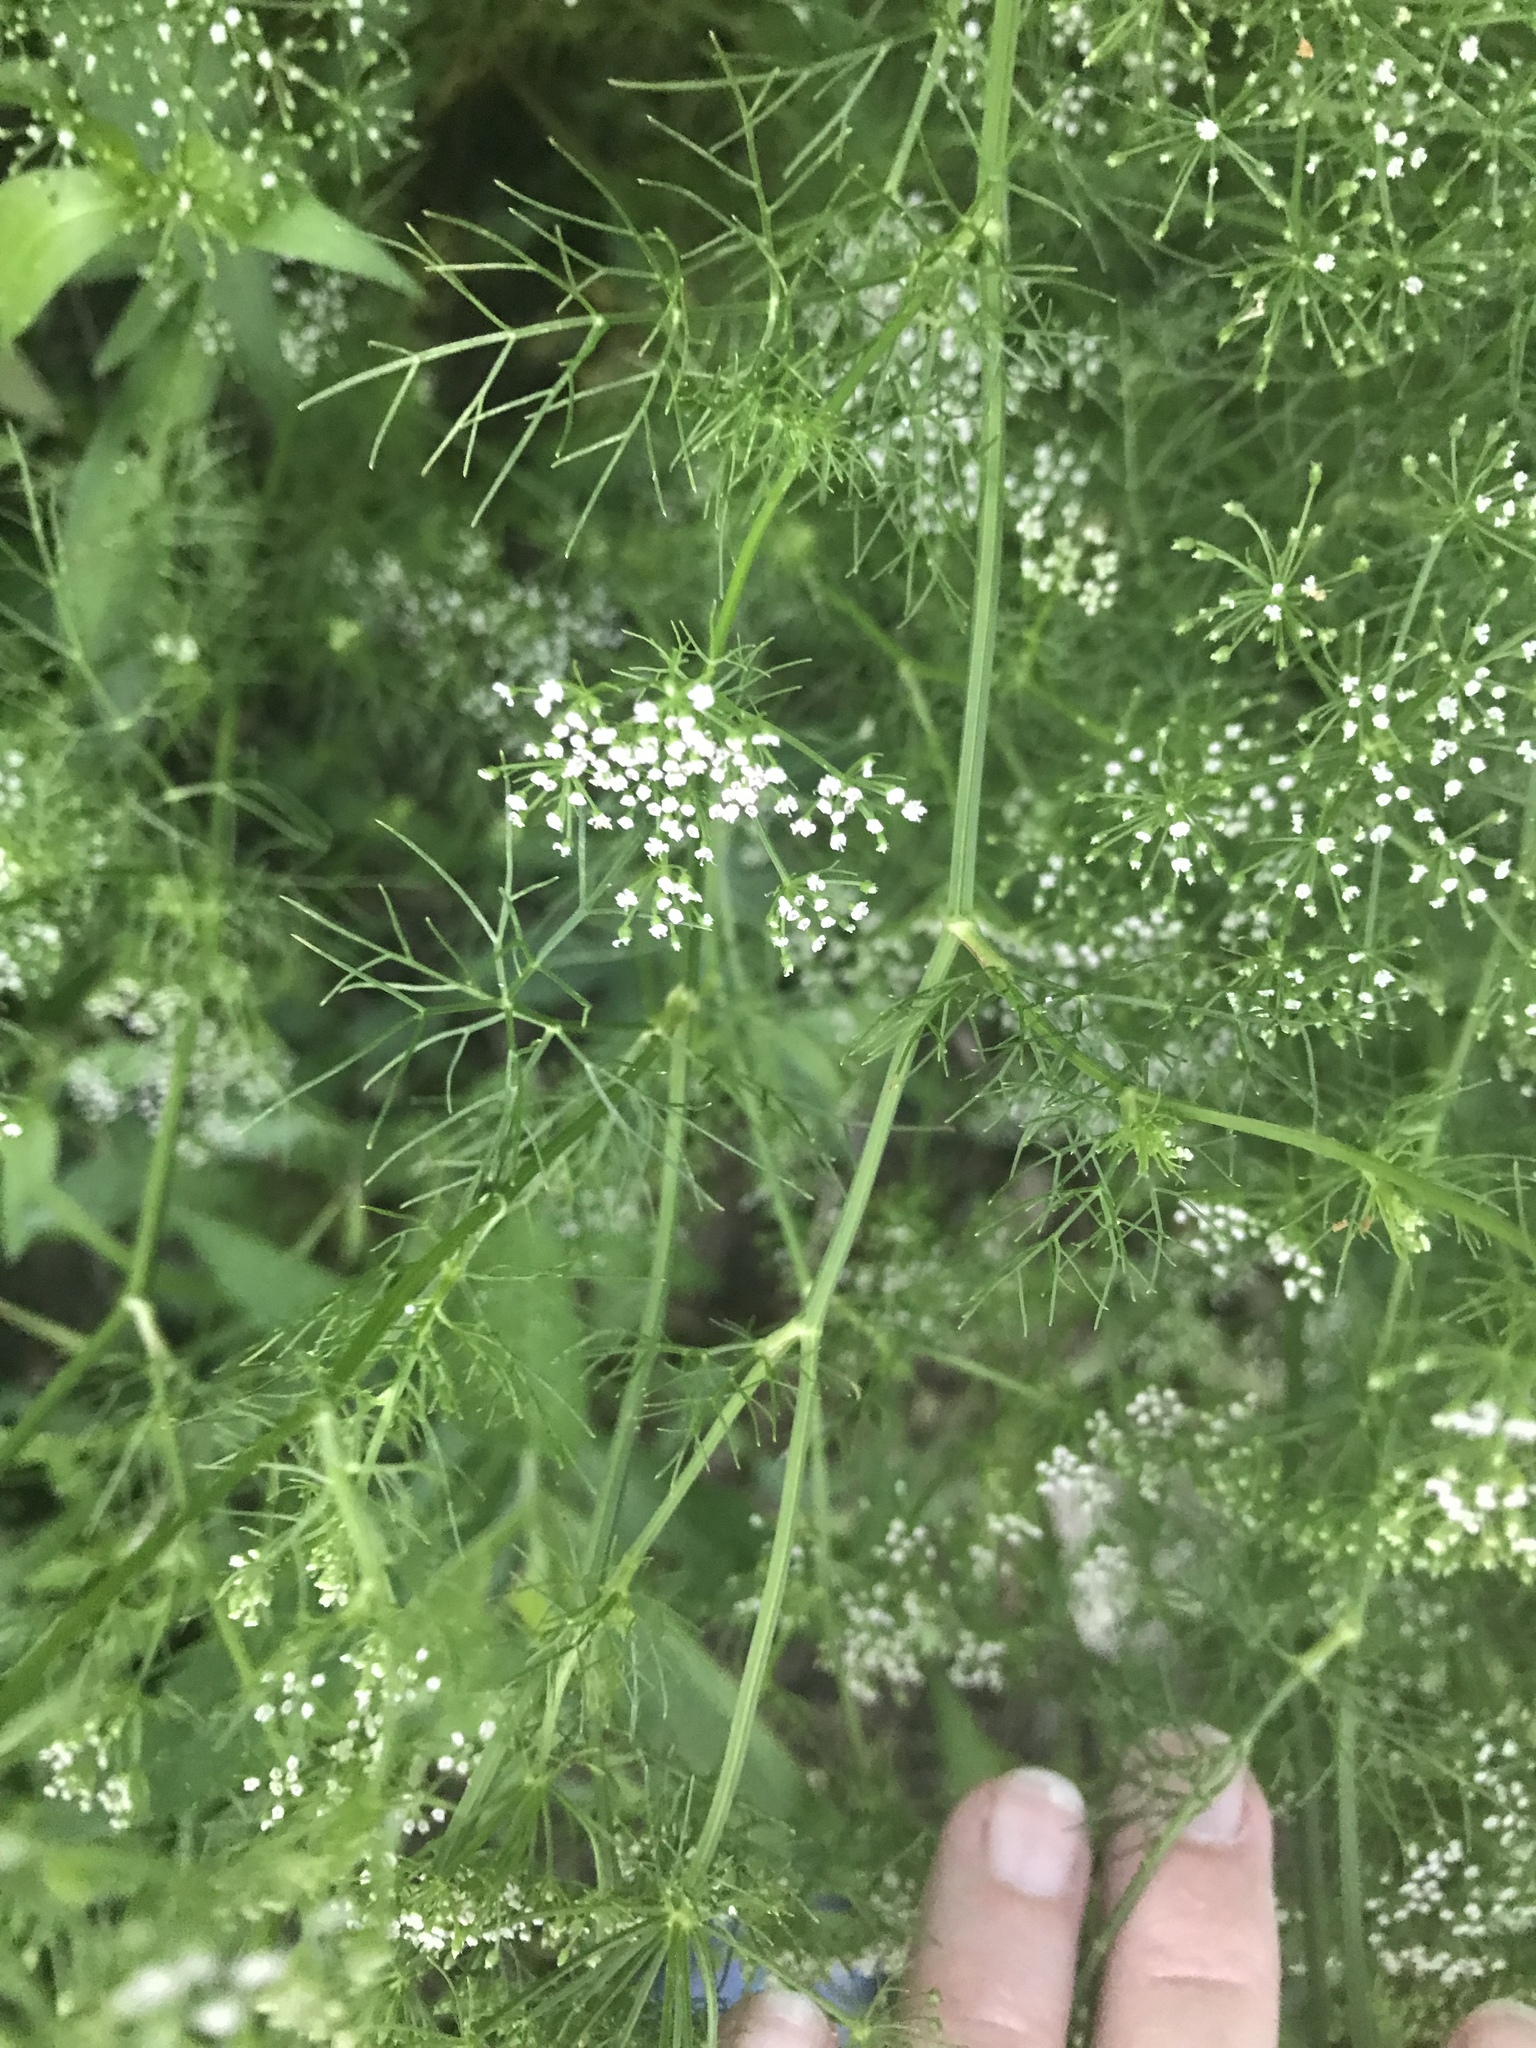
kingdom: Plantae
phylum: Tracheophyta
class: Magnoliopsida
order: Apiales
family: Apiaceae
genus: Ptilimnium
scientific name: Ptilimnium capillaceum
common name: Herbwilliam
